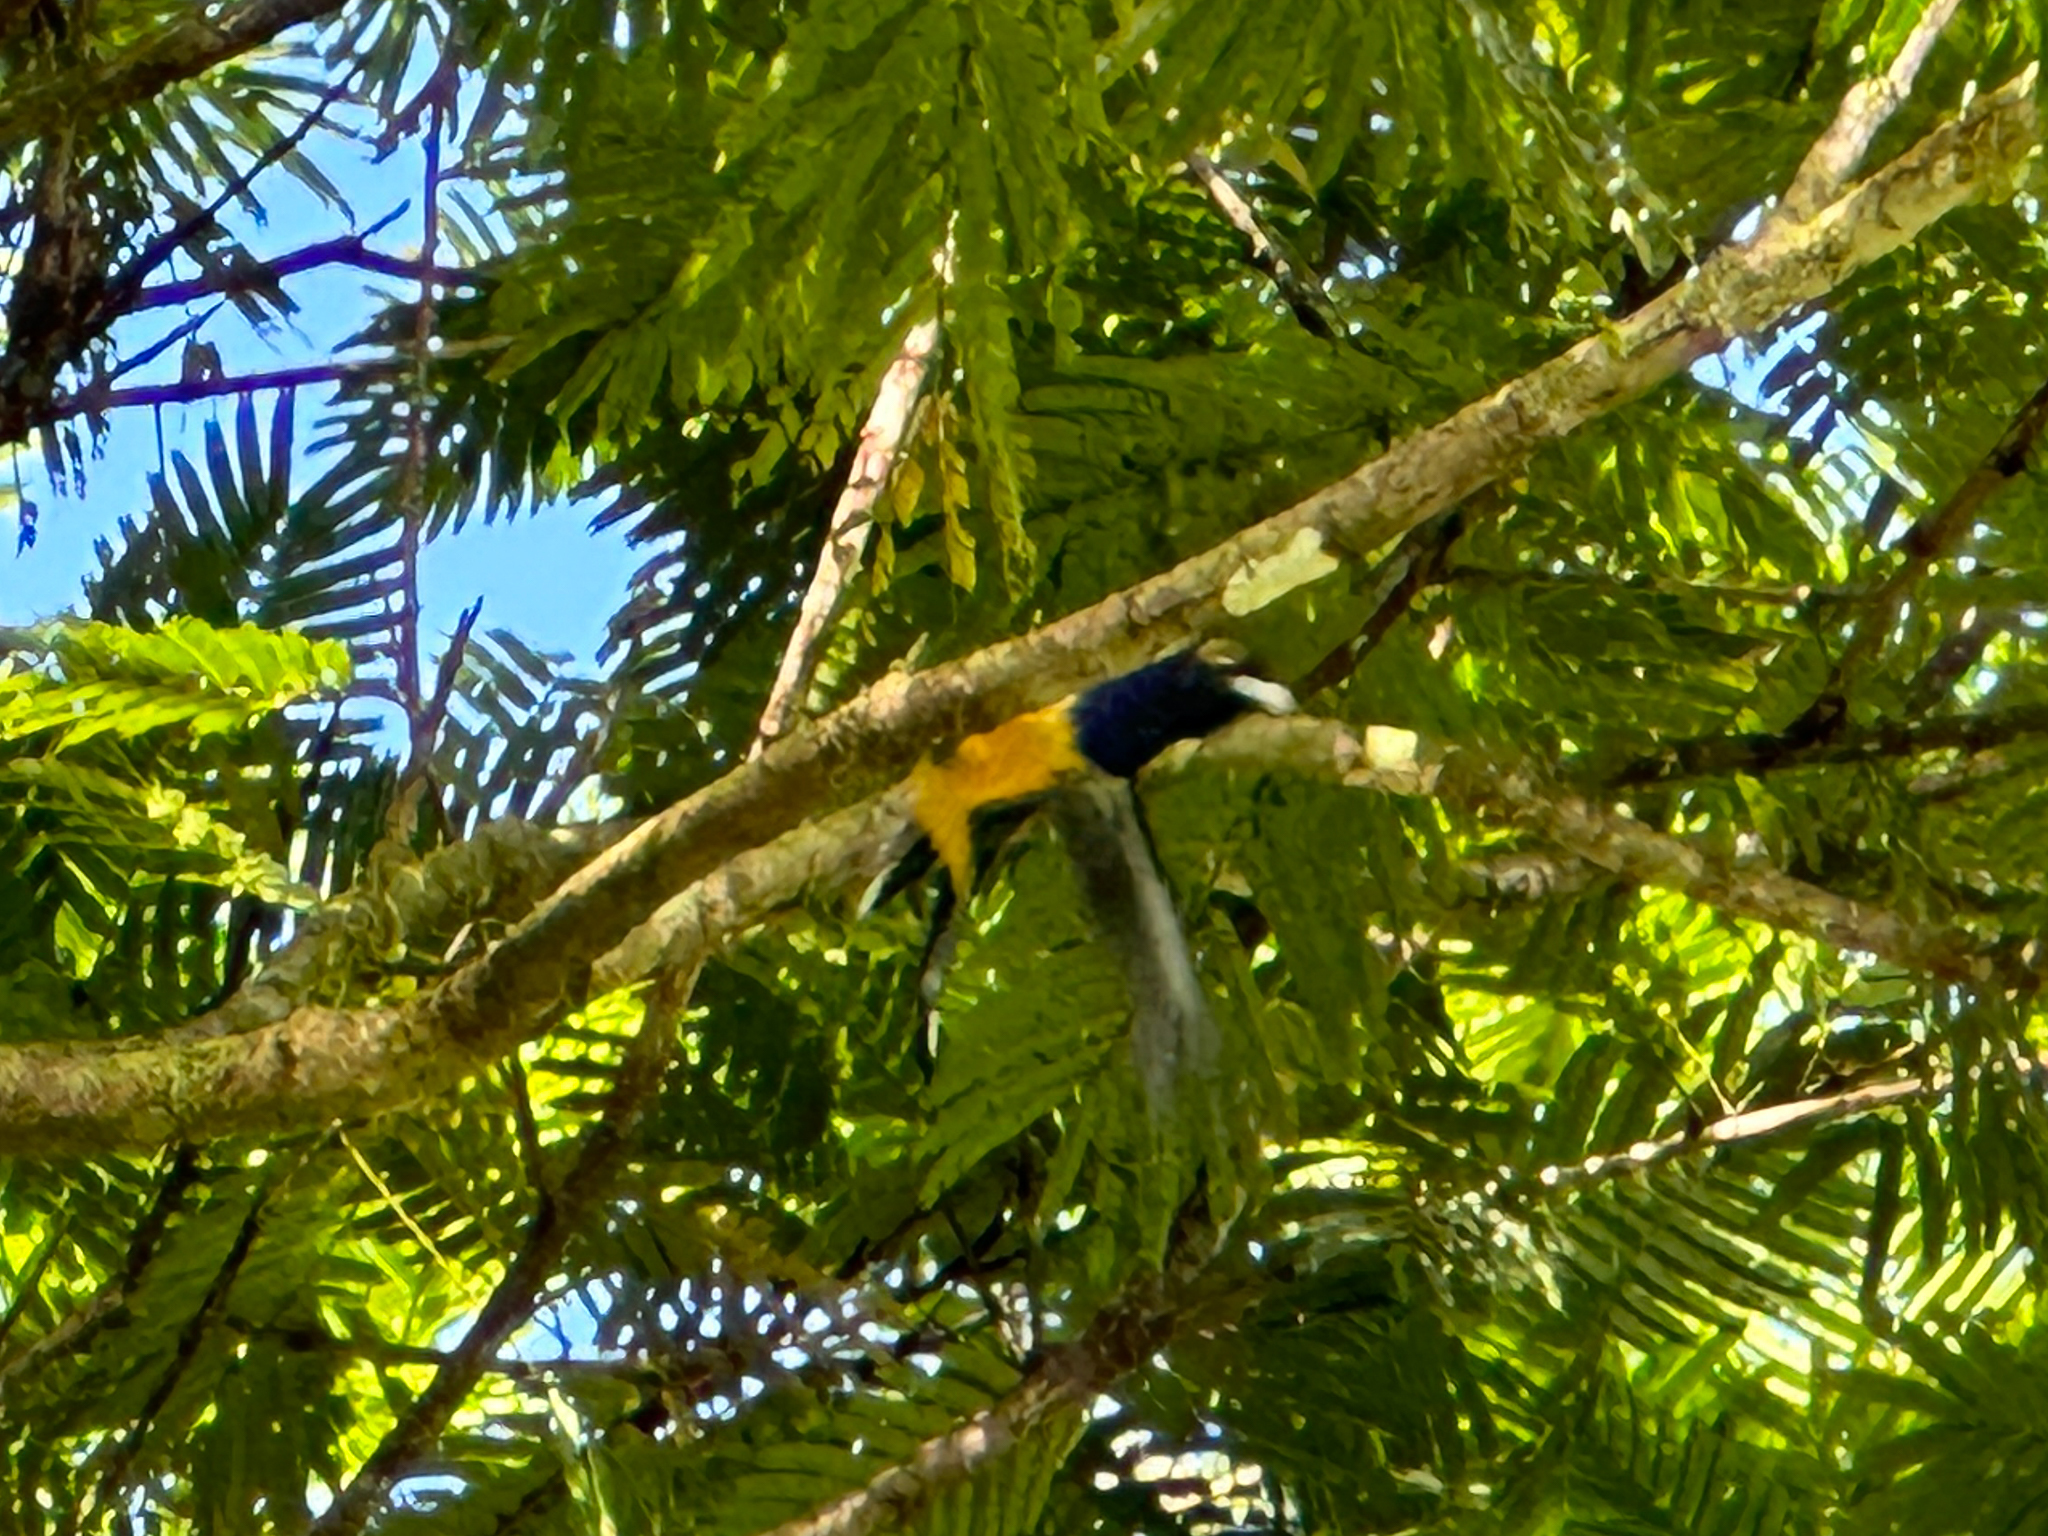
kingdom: Animalia
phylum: Chordata
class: Aves
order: Trogoniformes
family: Trogonidae
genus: Trogon
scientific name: Trogon caligatus
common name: Gartered trogon
